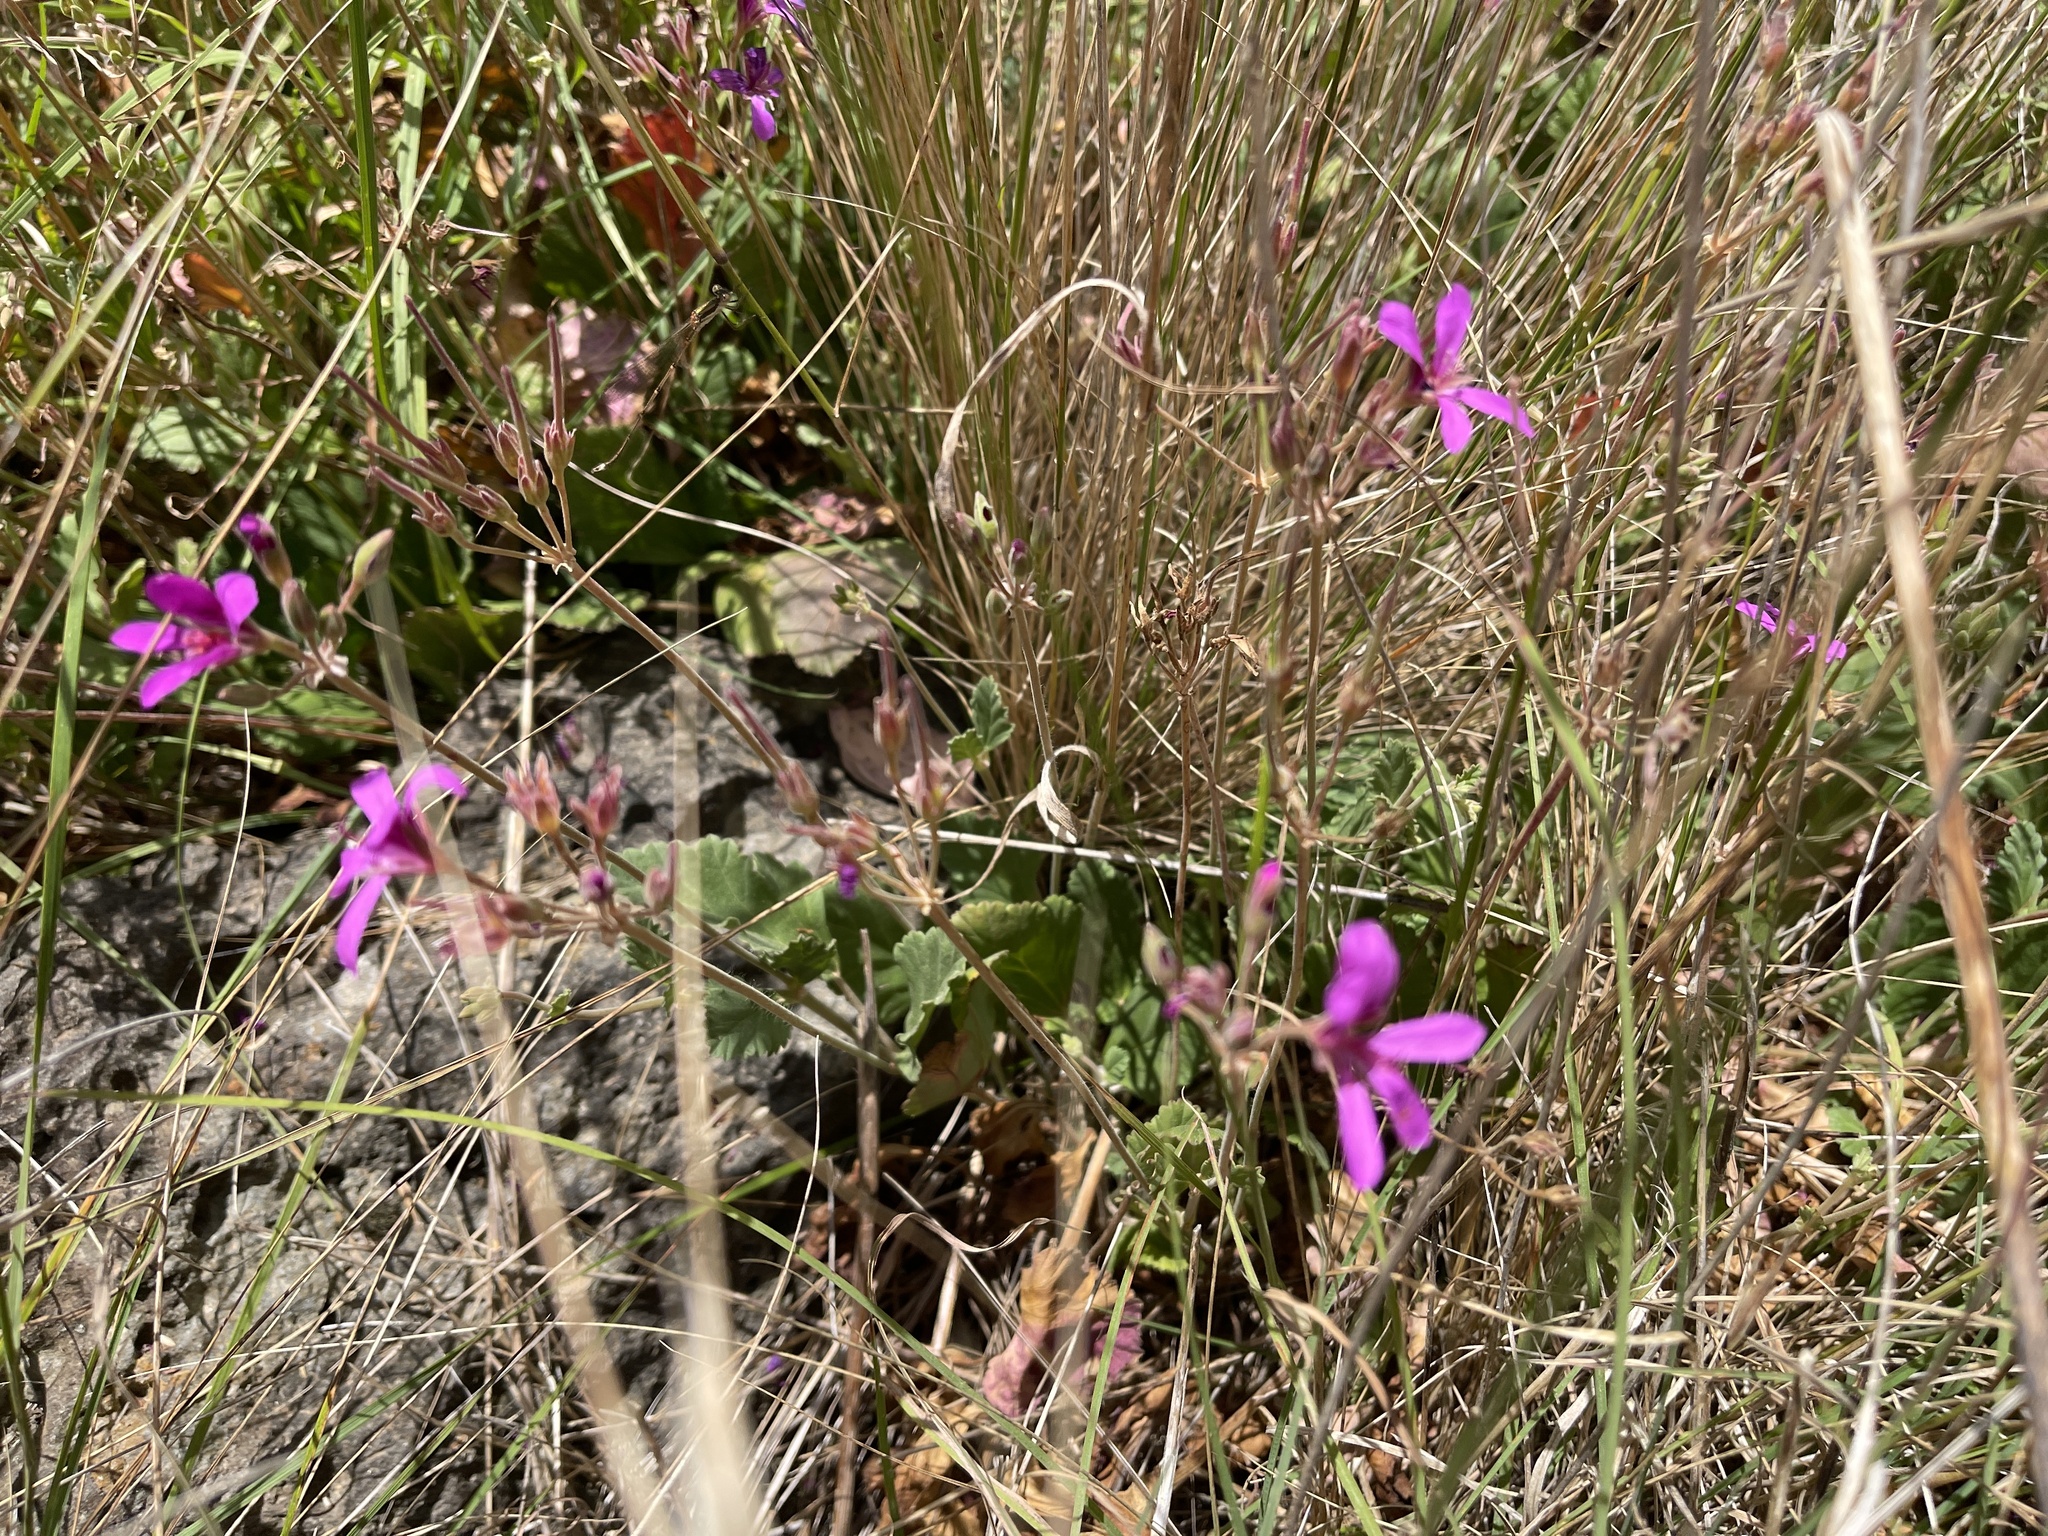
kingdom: Plantae
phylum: Tracheophyta
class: Magnoliopsida
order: Geraniales
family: Geraniaceae
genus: Pelargonium
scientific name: Pelargonium rodneyanum
